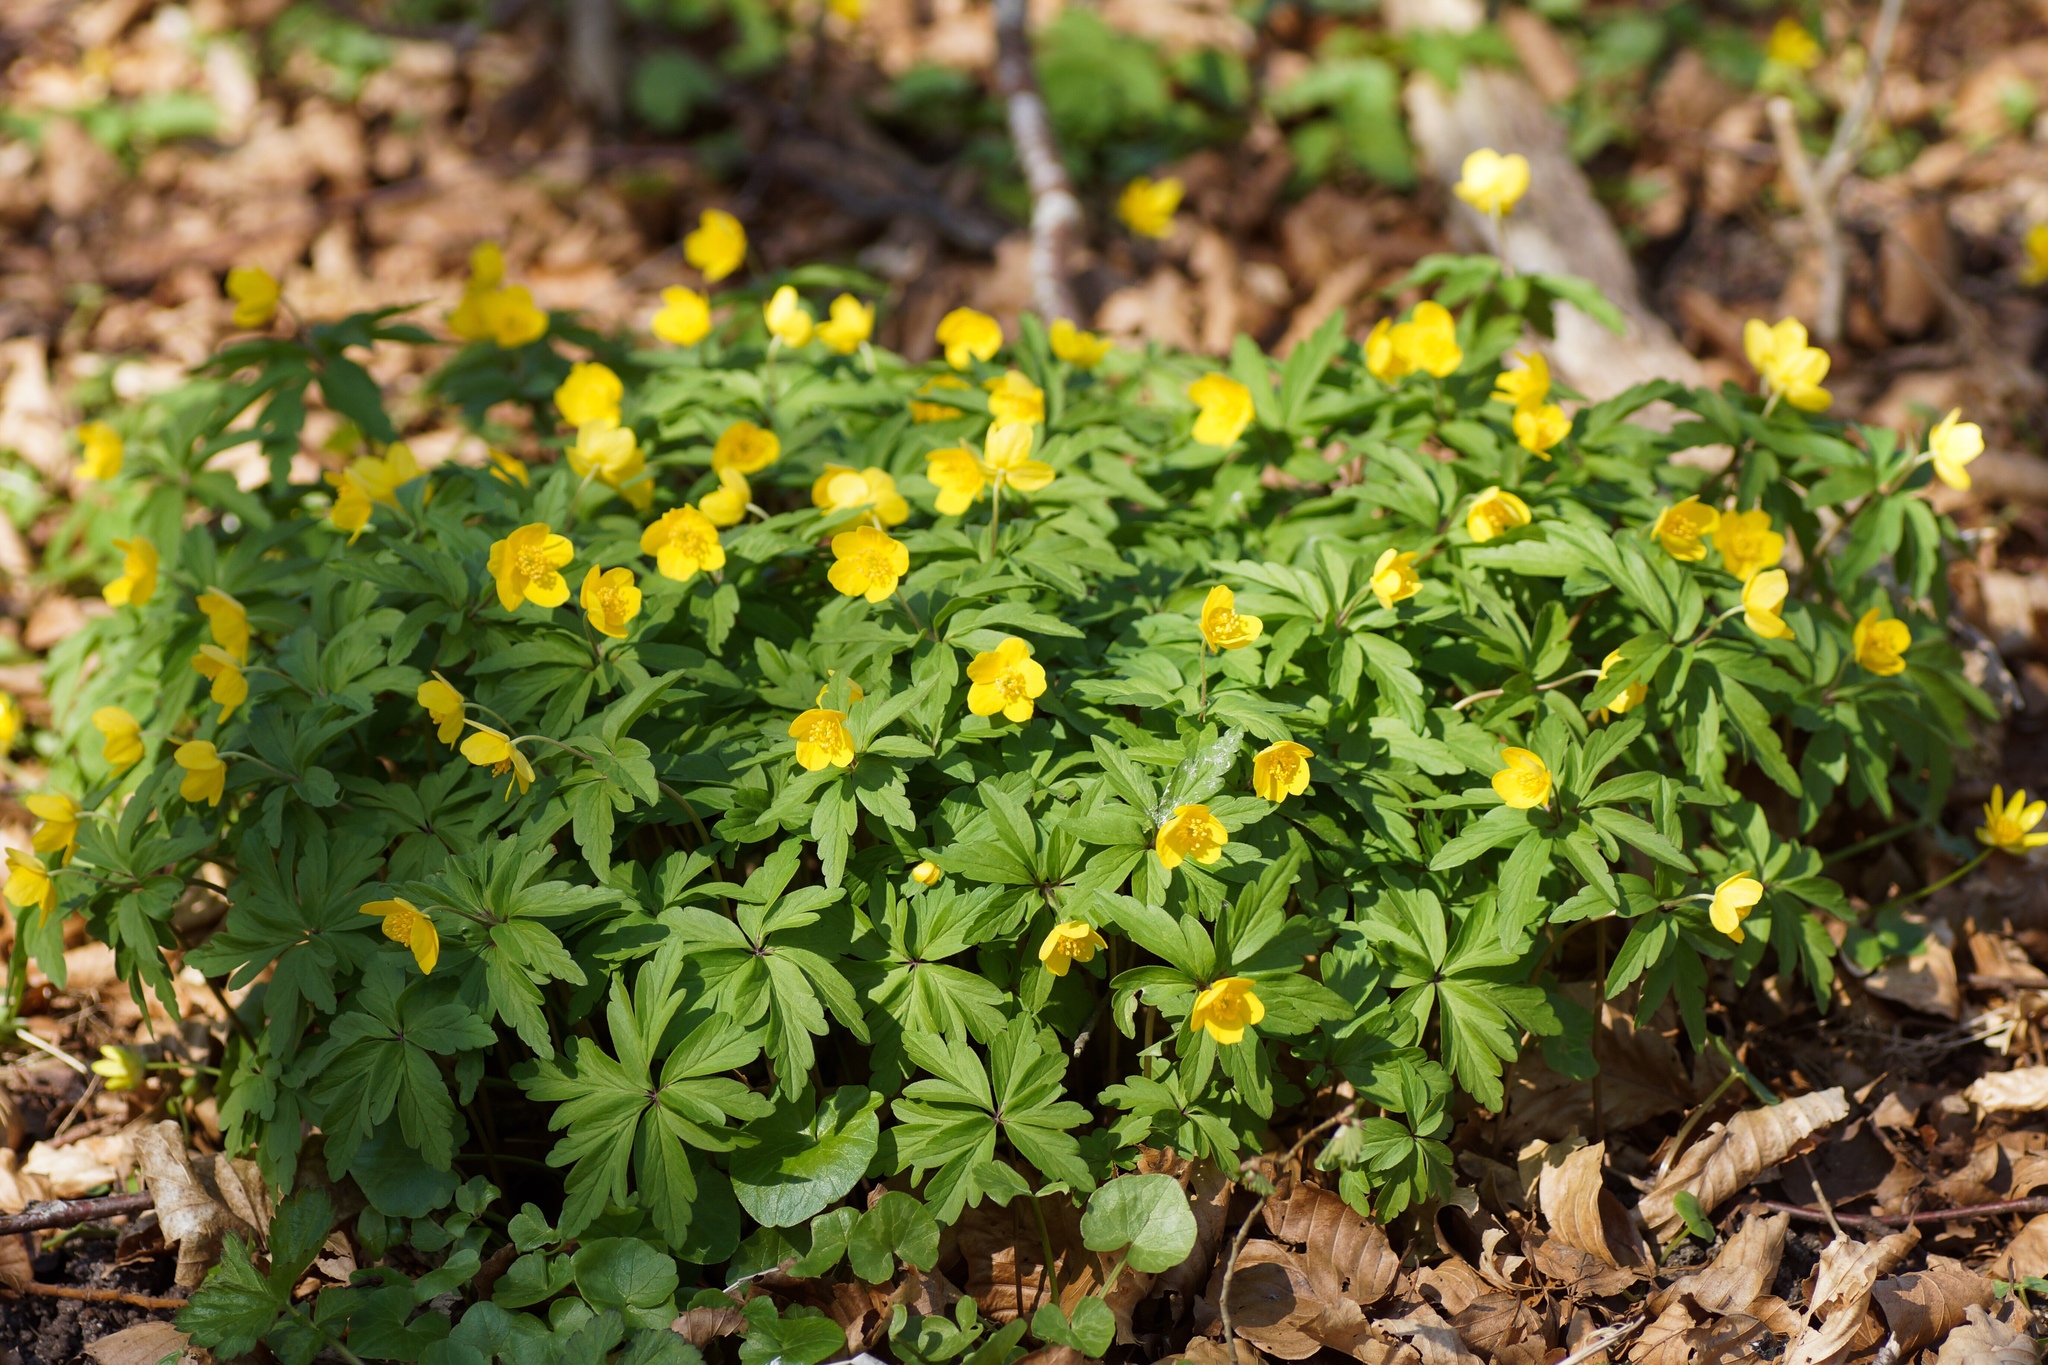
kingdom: Plantae
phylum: Tracheophyta
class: Magnoliopsida
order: Ranunculales
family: Ranunculaceae
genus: Anemone
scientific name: Anemone ranunculoides
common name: Yellow anemone
